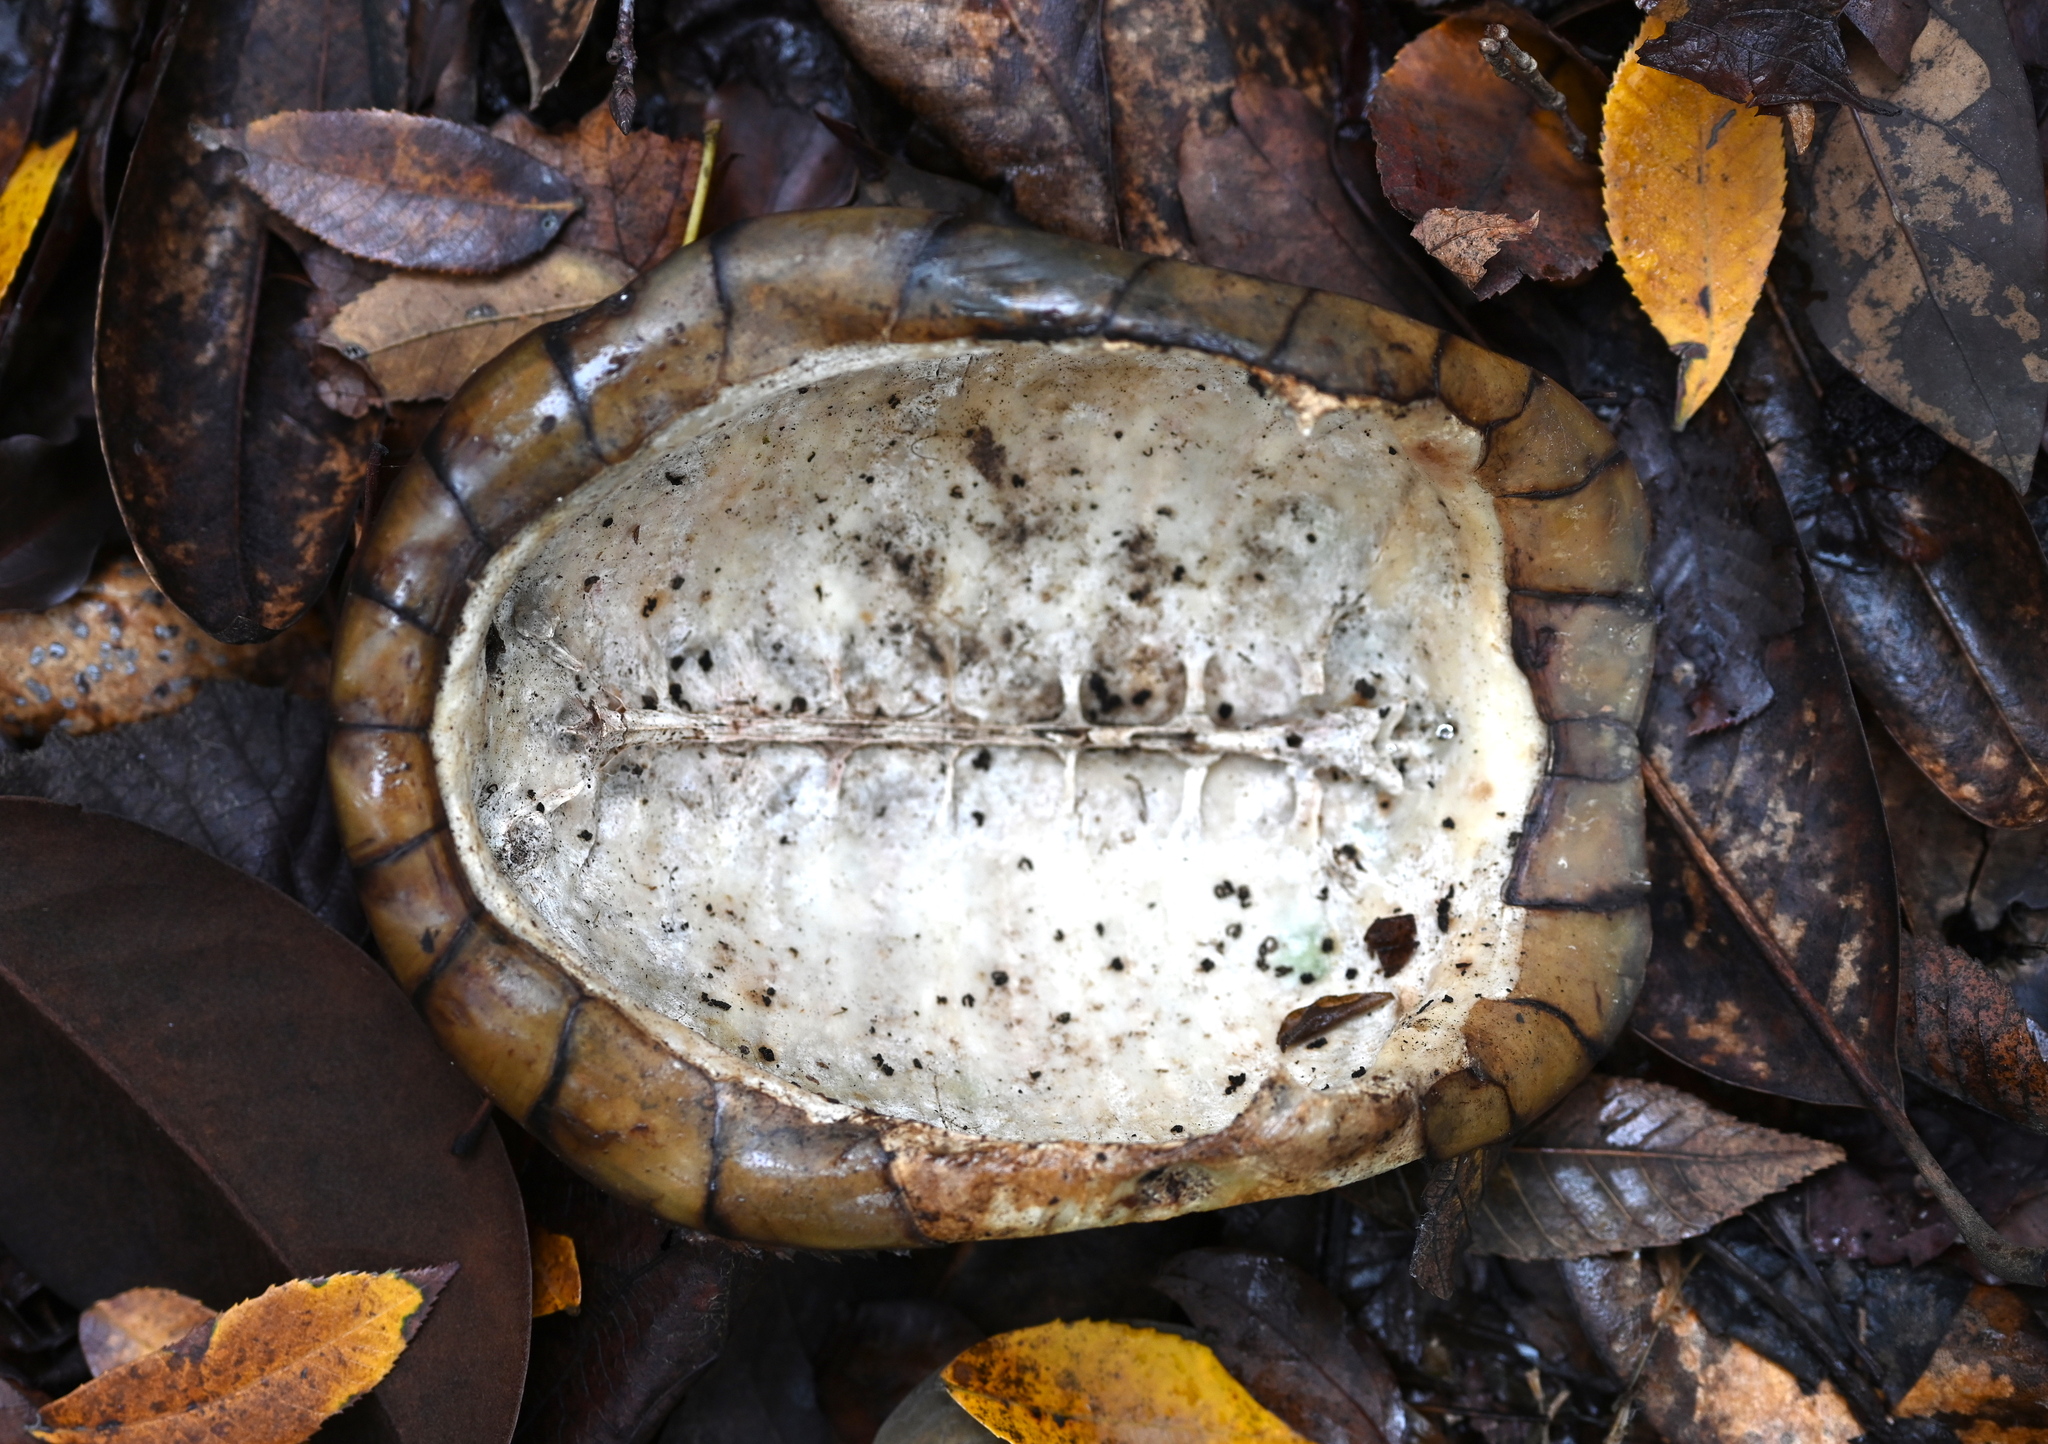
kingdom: Animalia
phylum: Chordata
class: Testudines
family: Emydidae
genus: Terrapene
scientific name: Terrapene carolina
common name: Common box turtle
